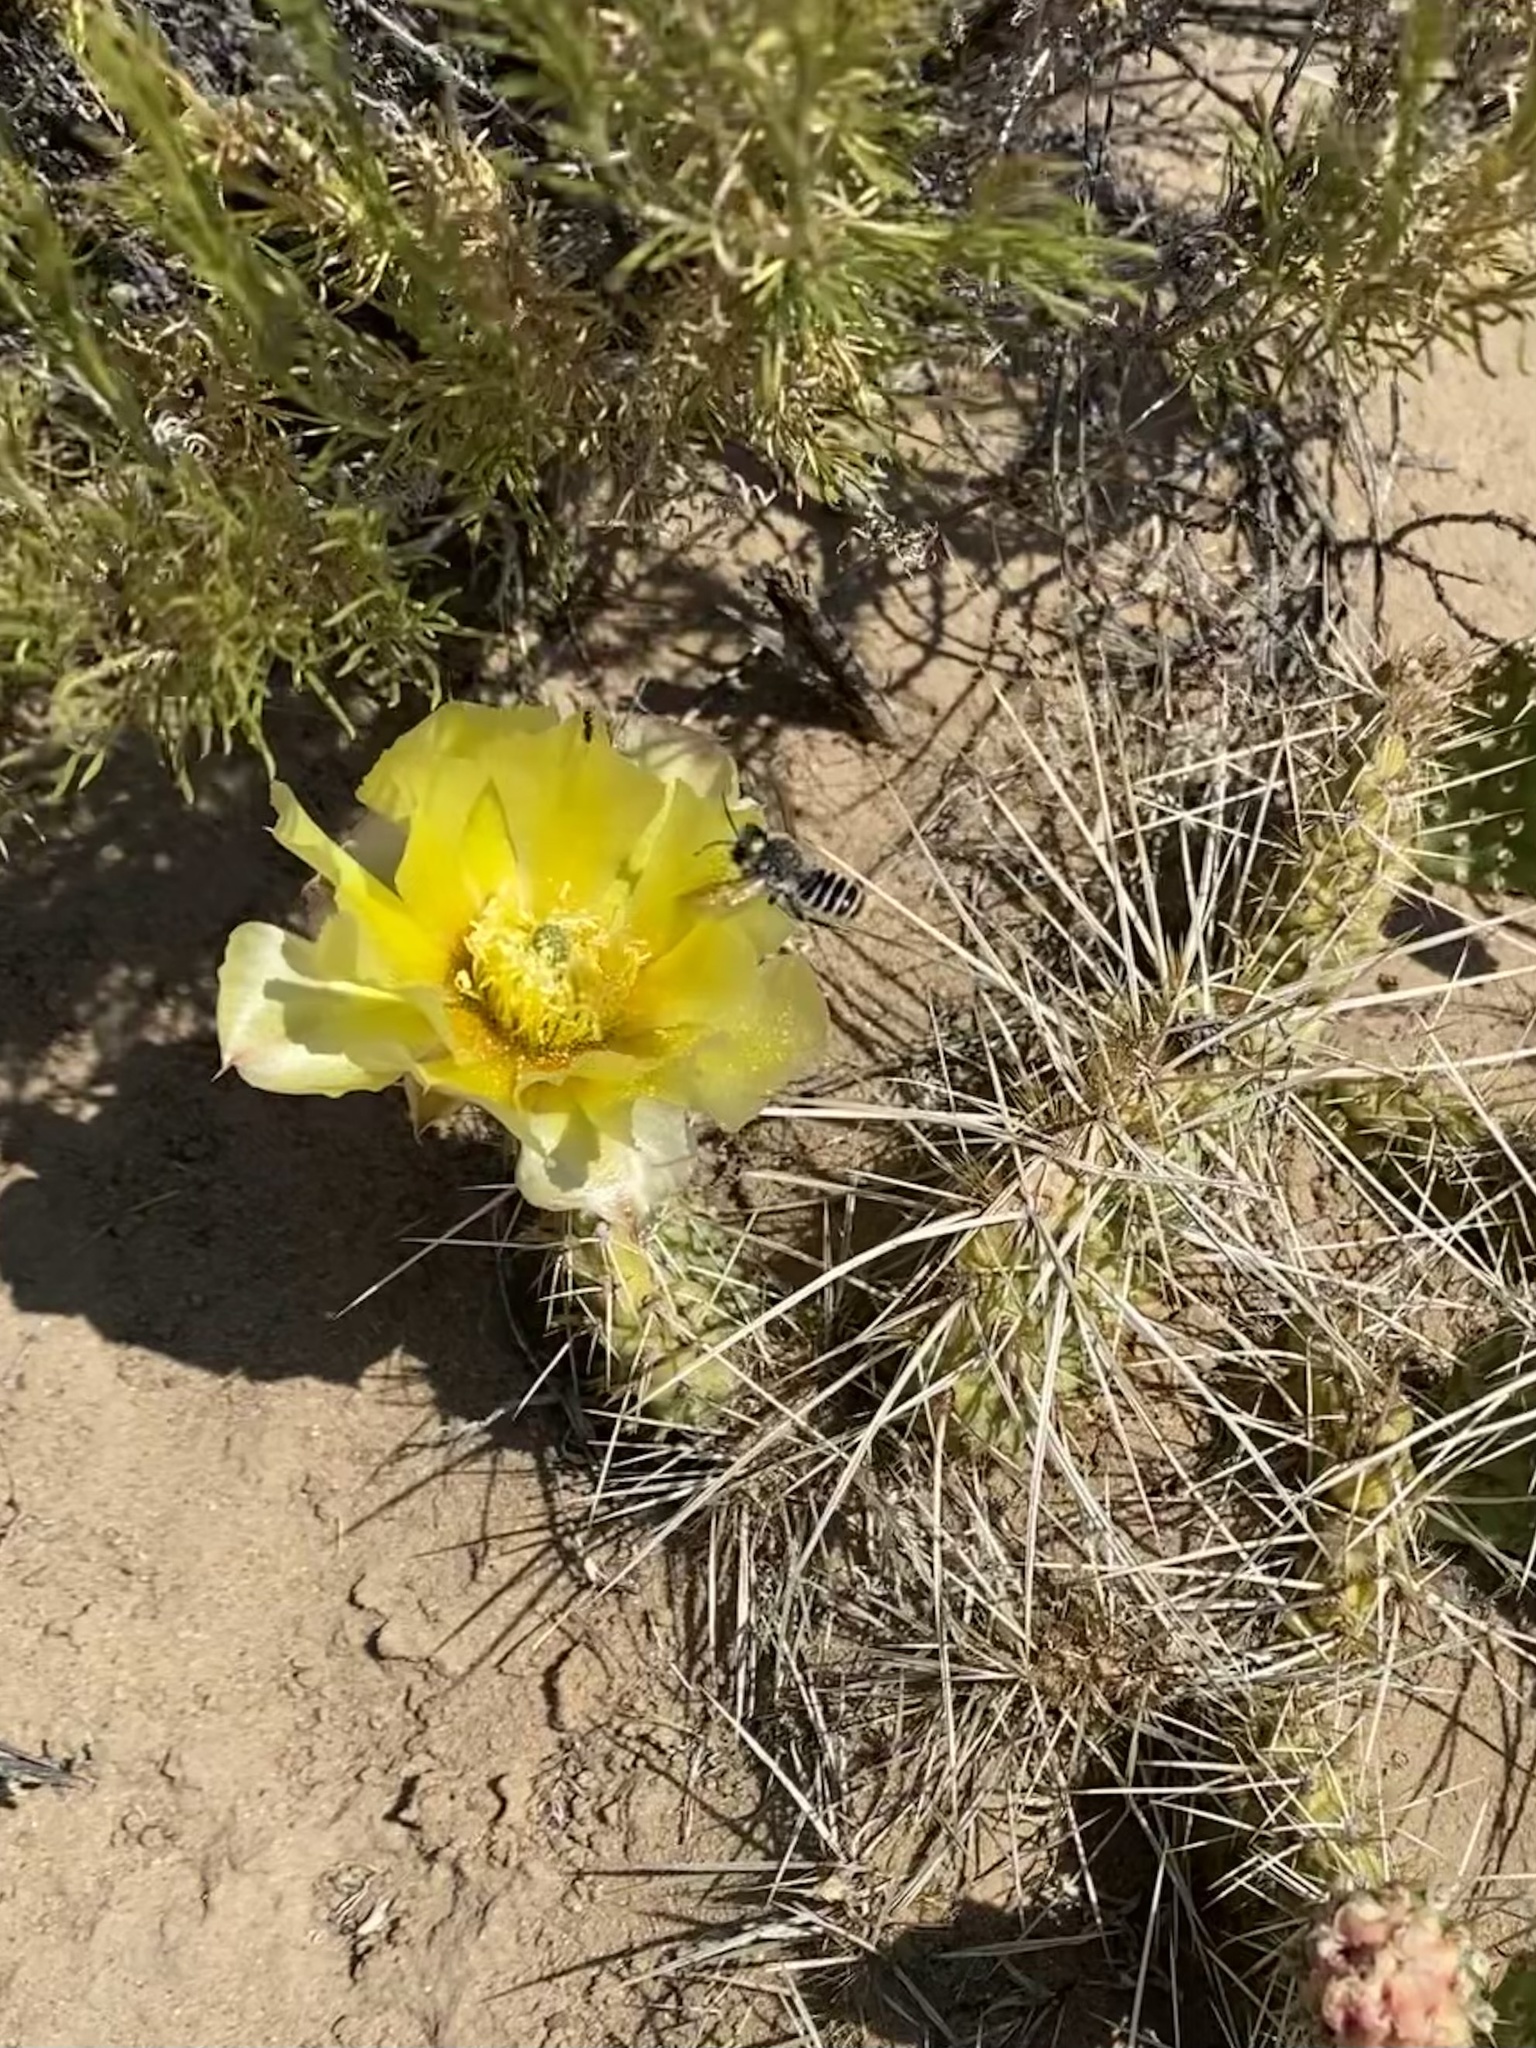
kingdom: Plantae
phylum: Tracheophyta
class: Magnoliopsida
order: Caryophyllales
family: Cactaceae
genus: Opuntia
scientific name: Opuntia polyacantha
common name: Plains prickly-pear
